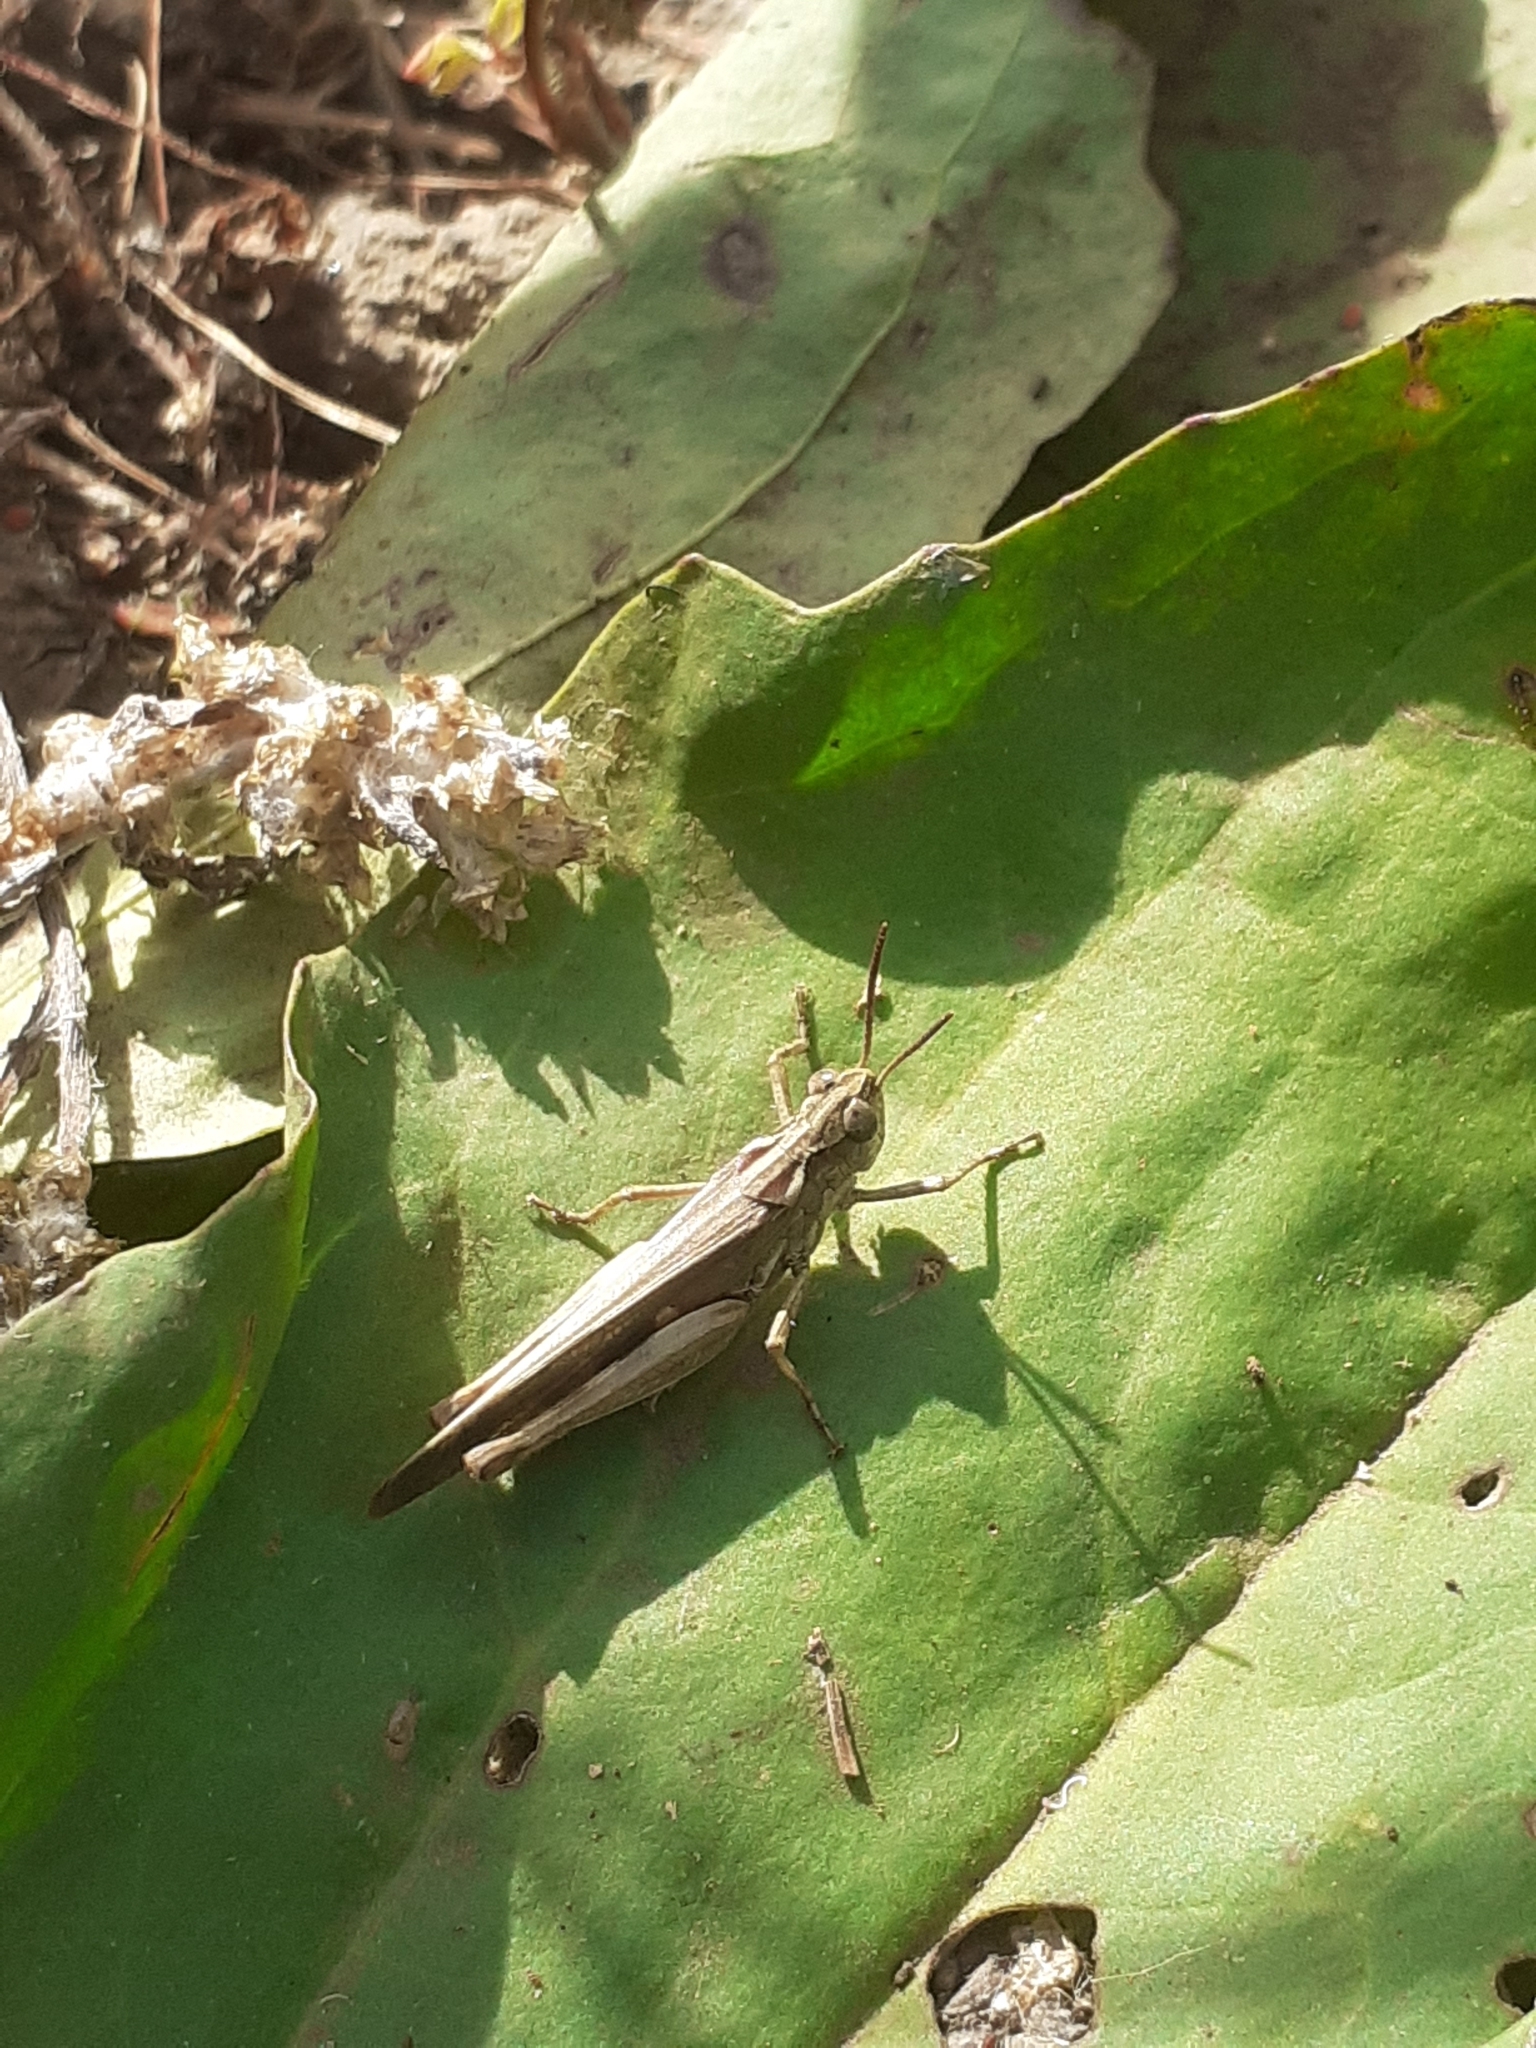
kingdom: Animalia
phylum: Arthropoda
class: Insecta
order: Orthoptera
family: Acrididae
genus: Aiolopus
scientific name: Aiolopus thalassinus
